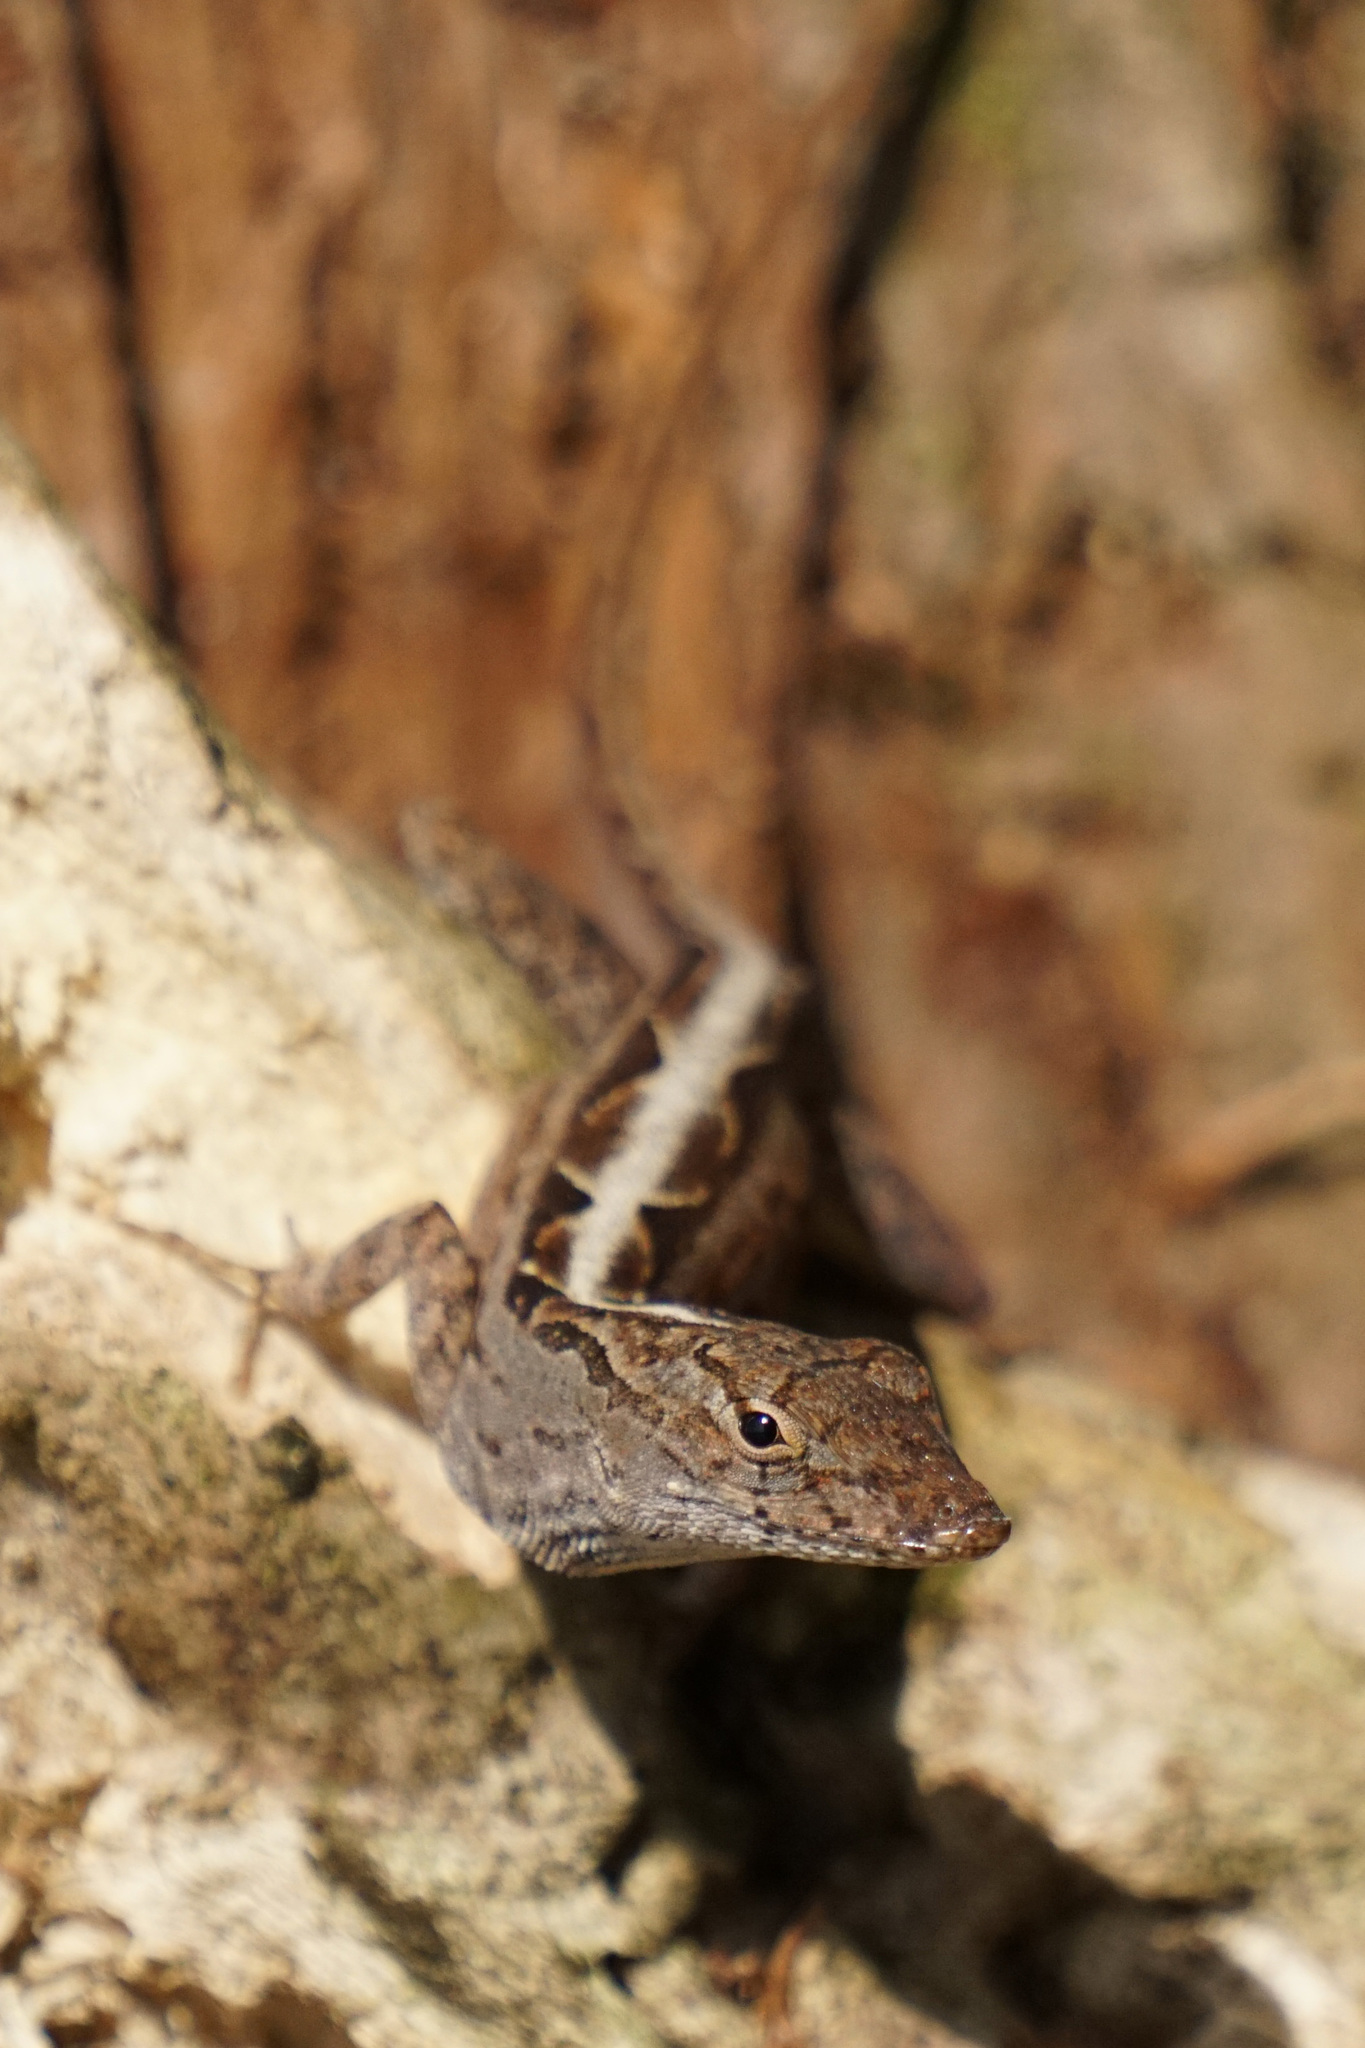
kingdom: Animalia
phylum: Chordata
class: Squamata
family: Dactyloidae
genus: Anolis
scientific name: Anolis sagrei
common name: Brown anole
